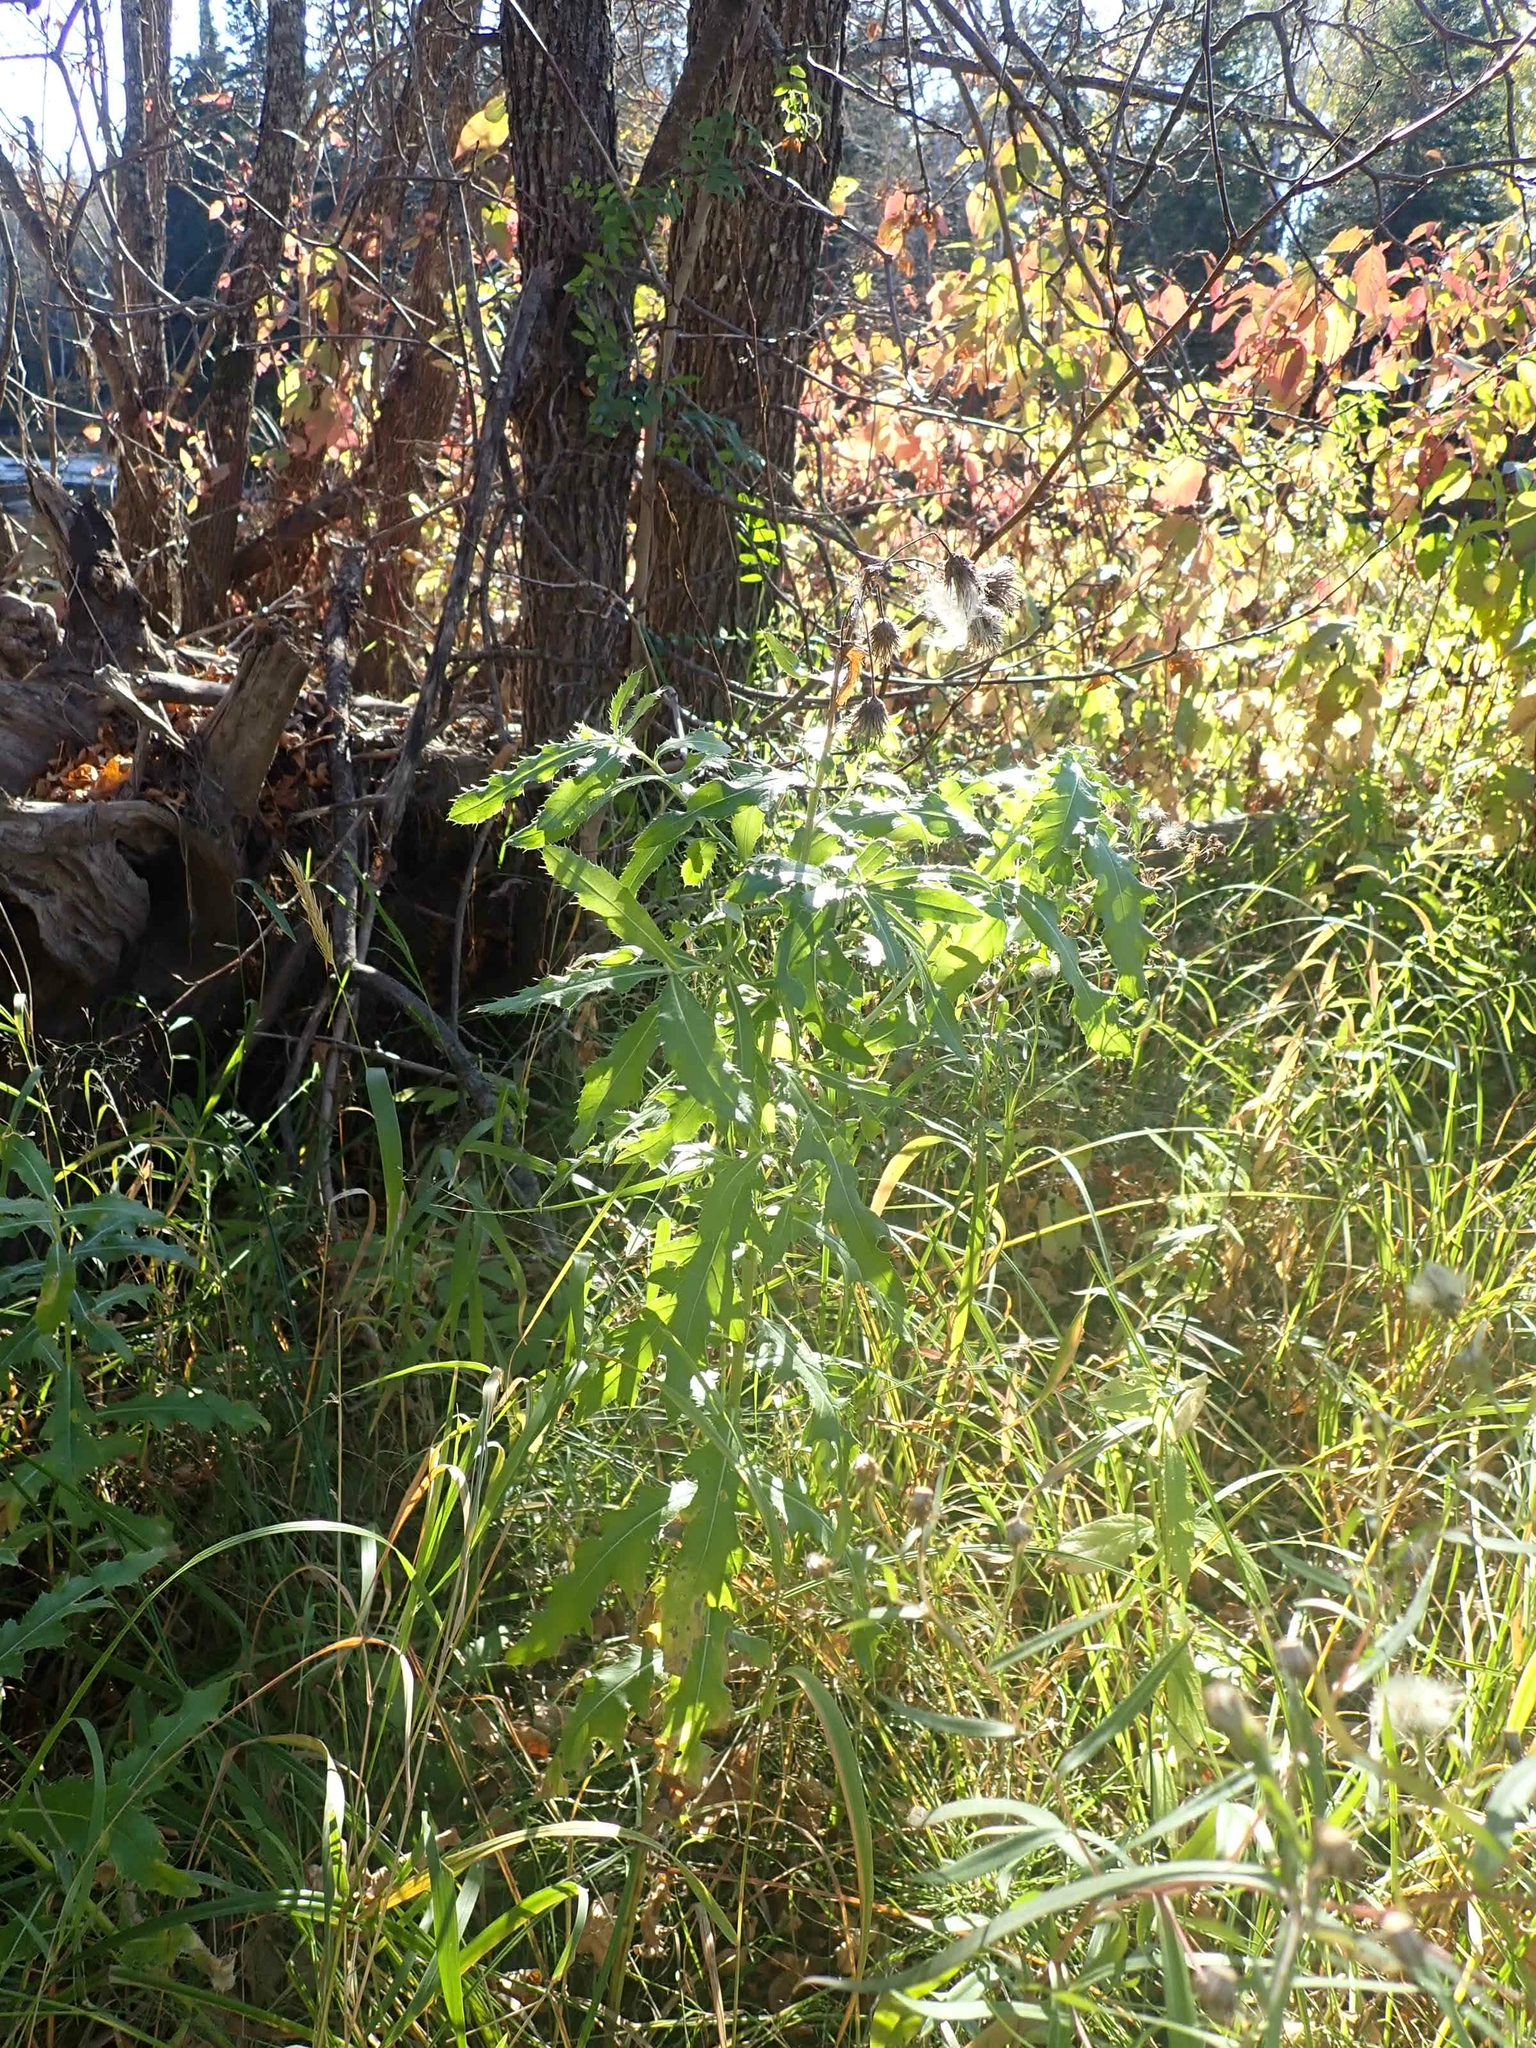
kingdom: Plantae
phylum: Tracheophyta
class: Magnoliopsida
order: Asterales
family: Asteraceae
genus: Cirsium
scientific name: Cirsium arvense
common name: Creeping thistle
